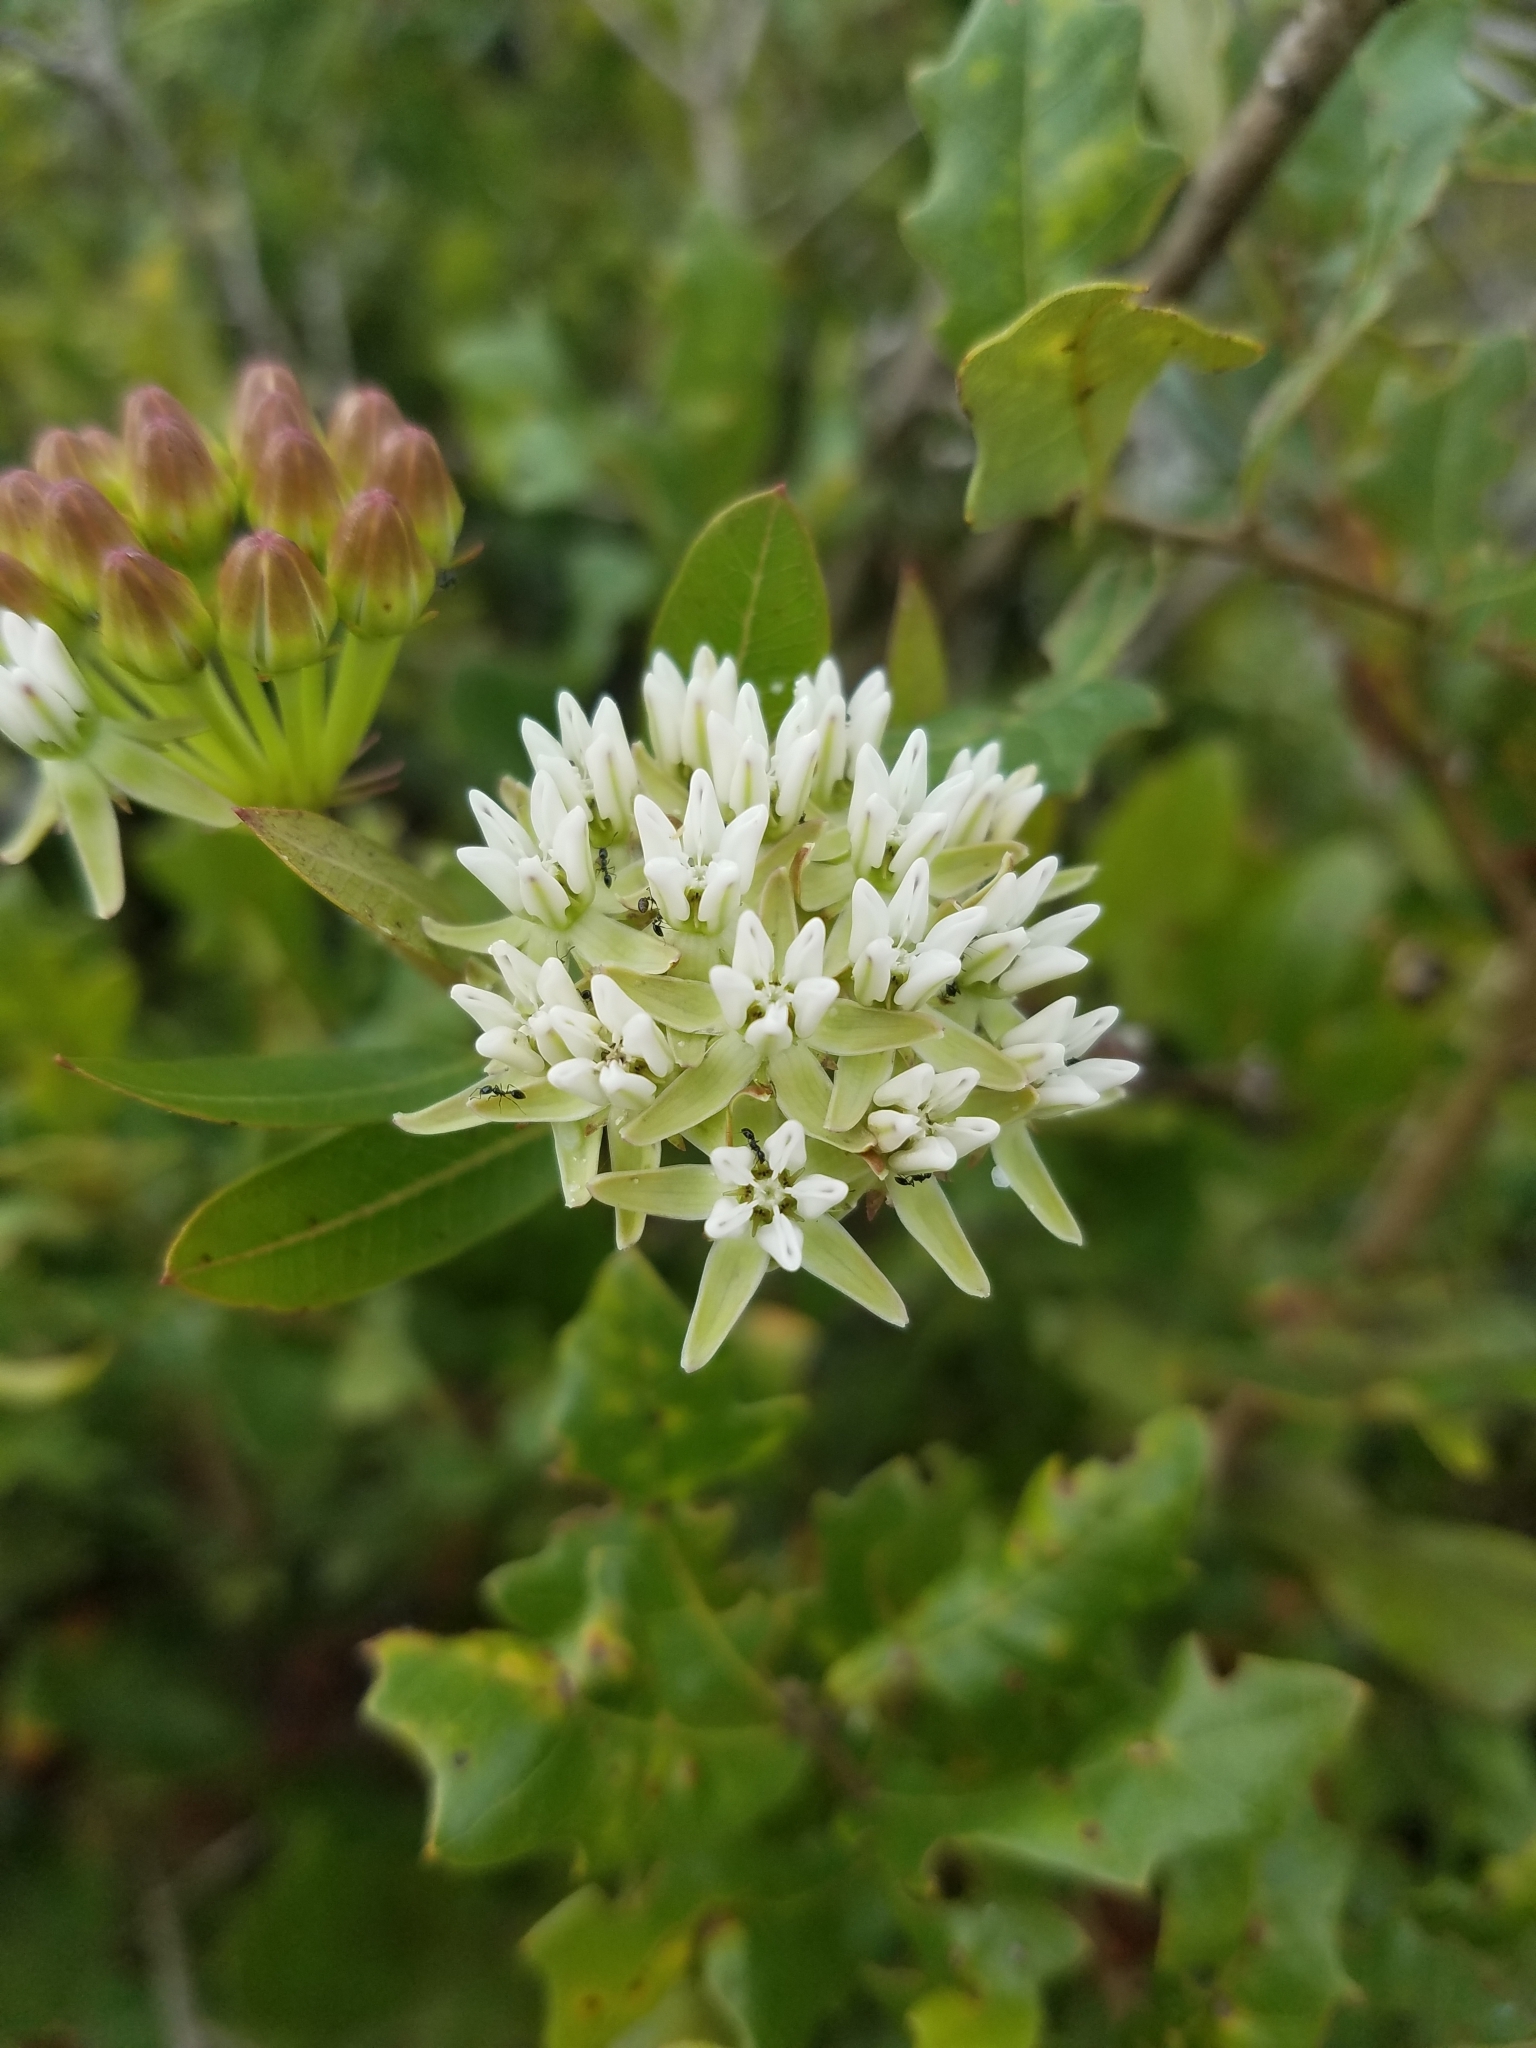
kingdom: Plantae
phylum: Tracheophyta
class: Magnoliopsida
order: Gentianales
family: Apocynaceae
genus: Asclepias
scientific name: Asclepias curtissii
